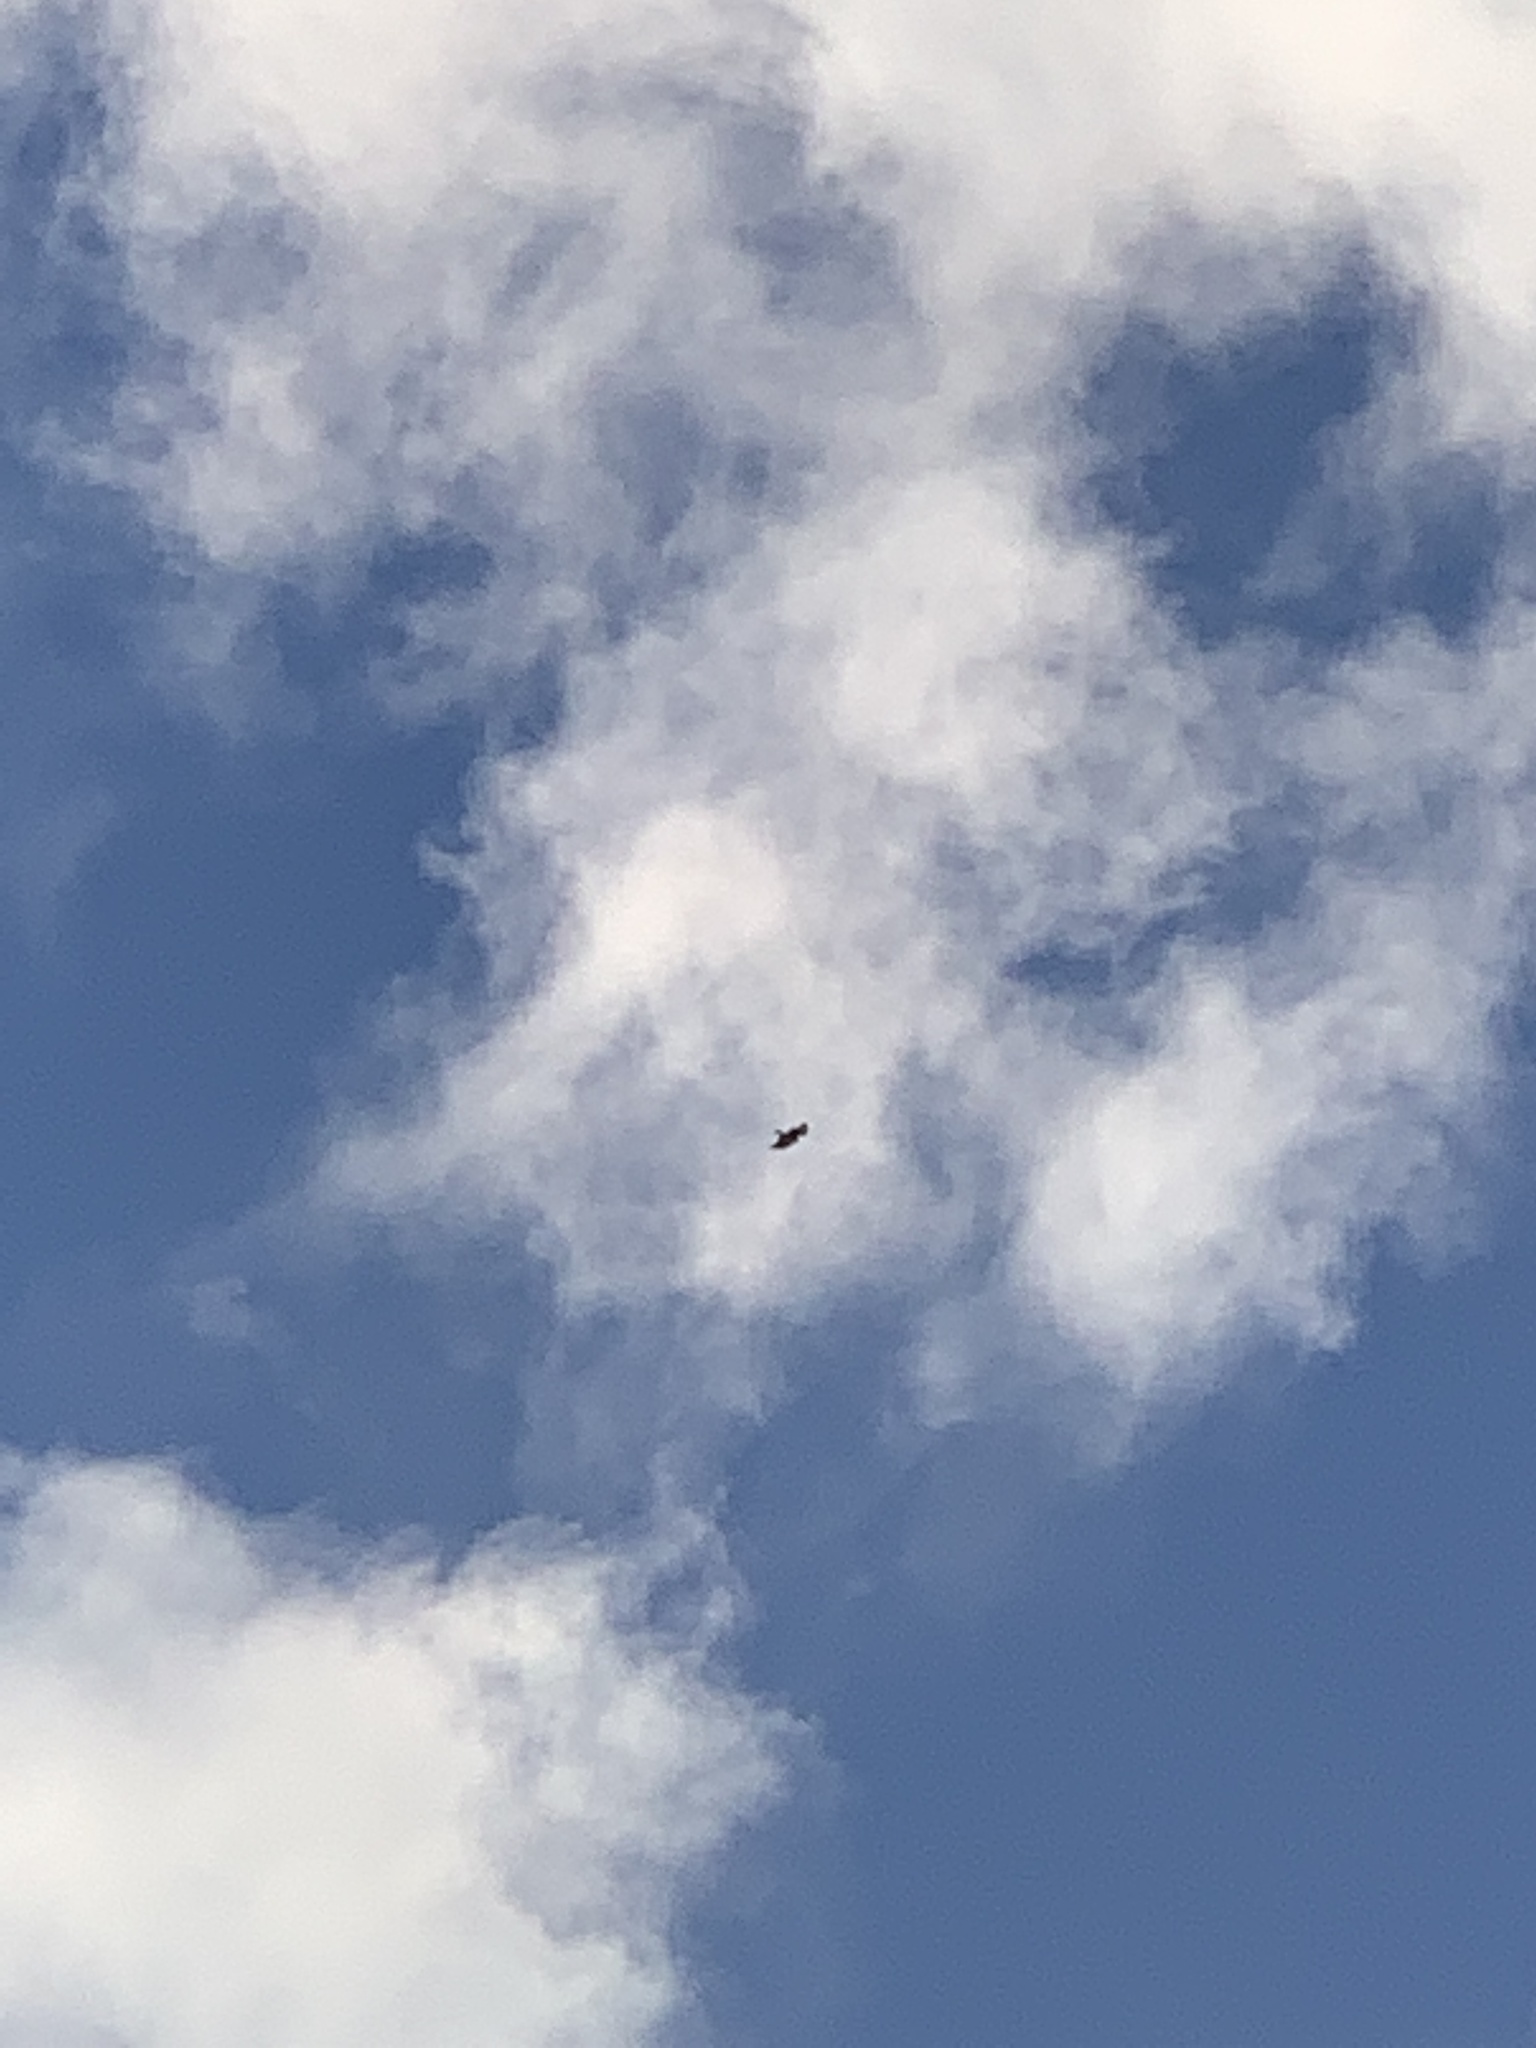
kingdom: Animalia
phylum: Chordata
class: Aves
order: Accipitriformes
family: Accipitridae
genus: Buteo
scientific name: Buteo buteo
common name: Common buzzard
